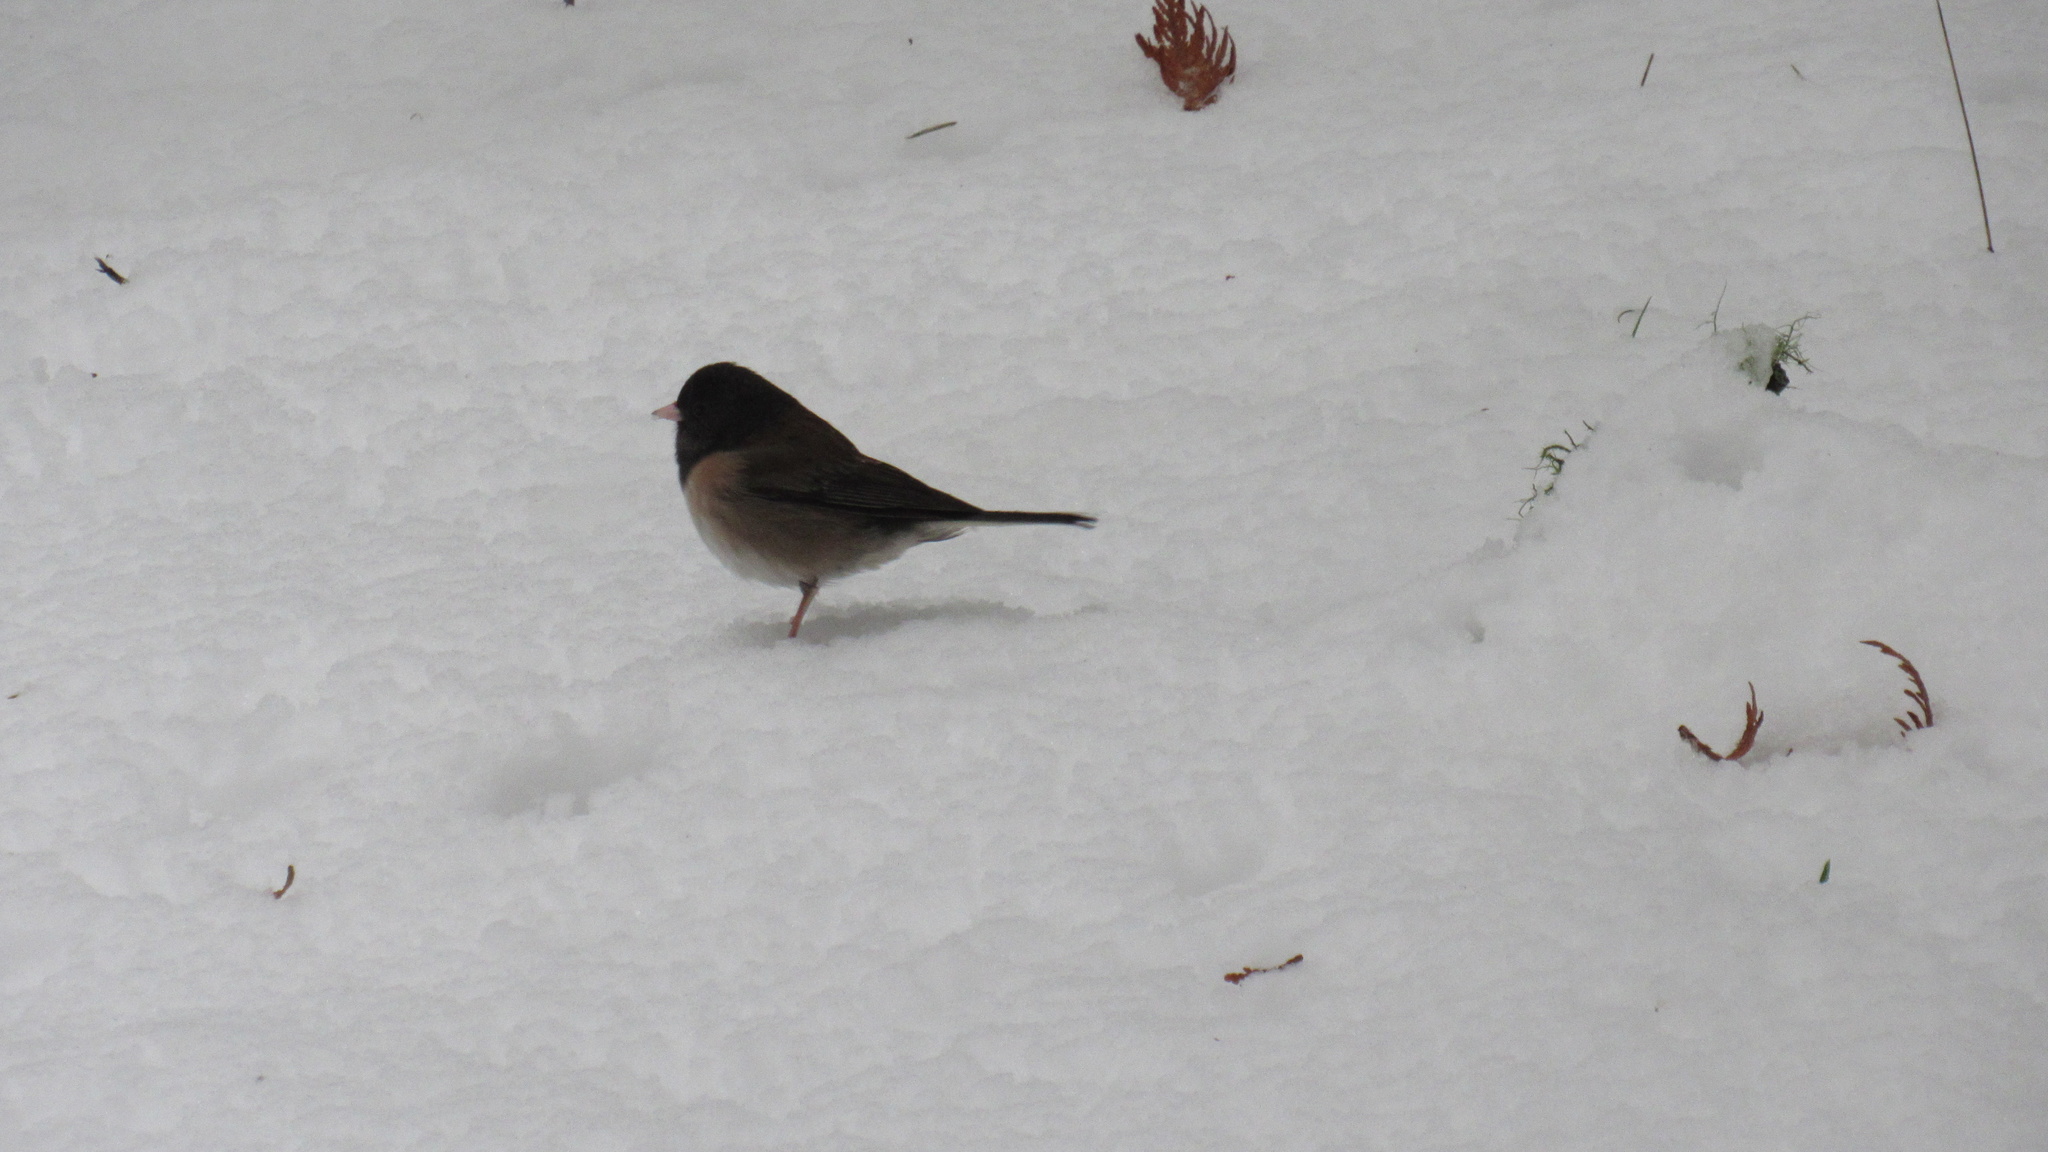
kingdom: Animalia
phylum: Chordata
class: Aves
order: Passeriformes
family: Passerellidae
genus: Junco
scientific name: Junco hyemalis
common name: Dark-eyed junco
